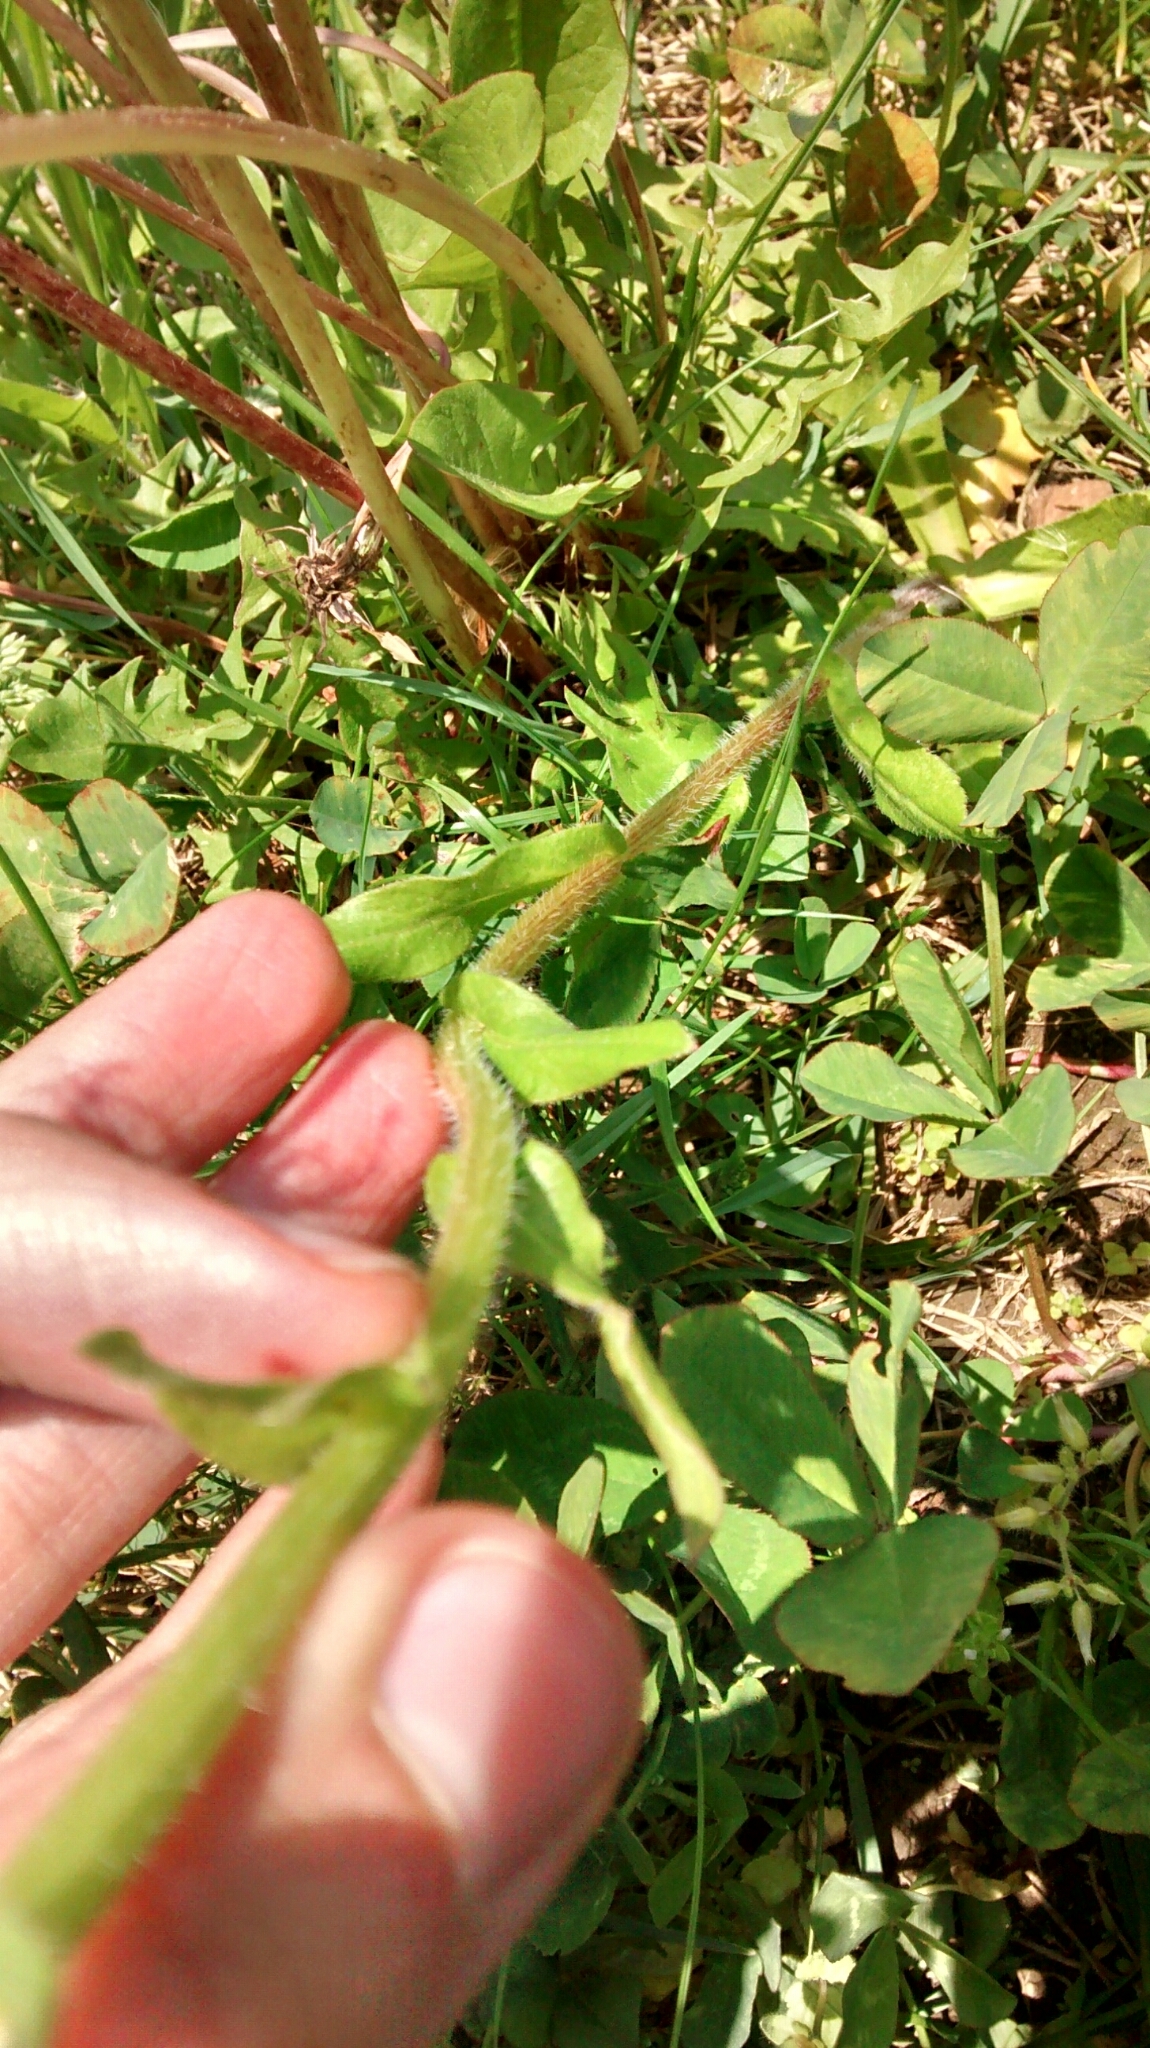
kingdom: Plantae
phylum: Tracheophyta
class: Magnoliopsida
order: Asterales
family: Asteraceae
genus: Erigeron
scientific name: Erigeron philadelphicus
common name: Robin's-plantain
